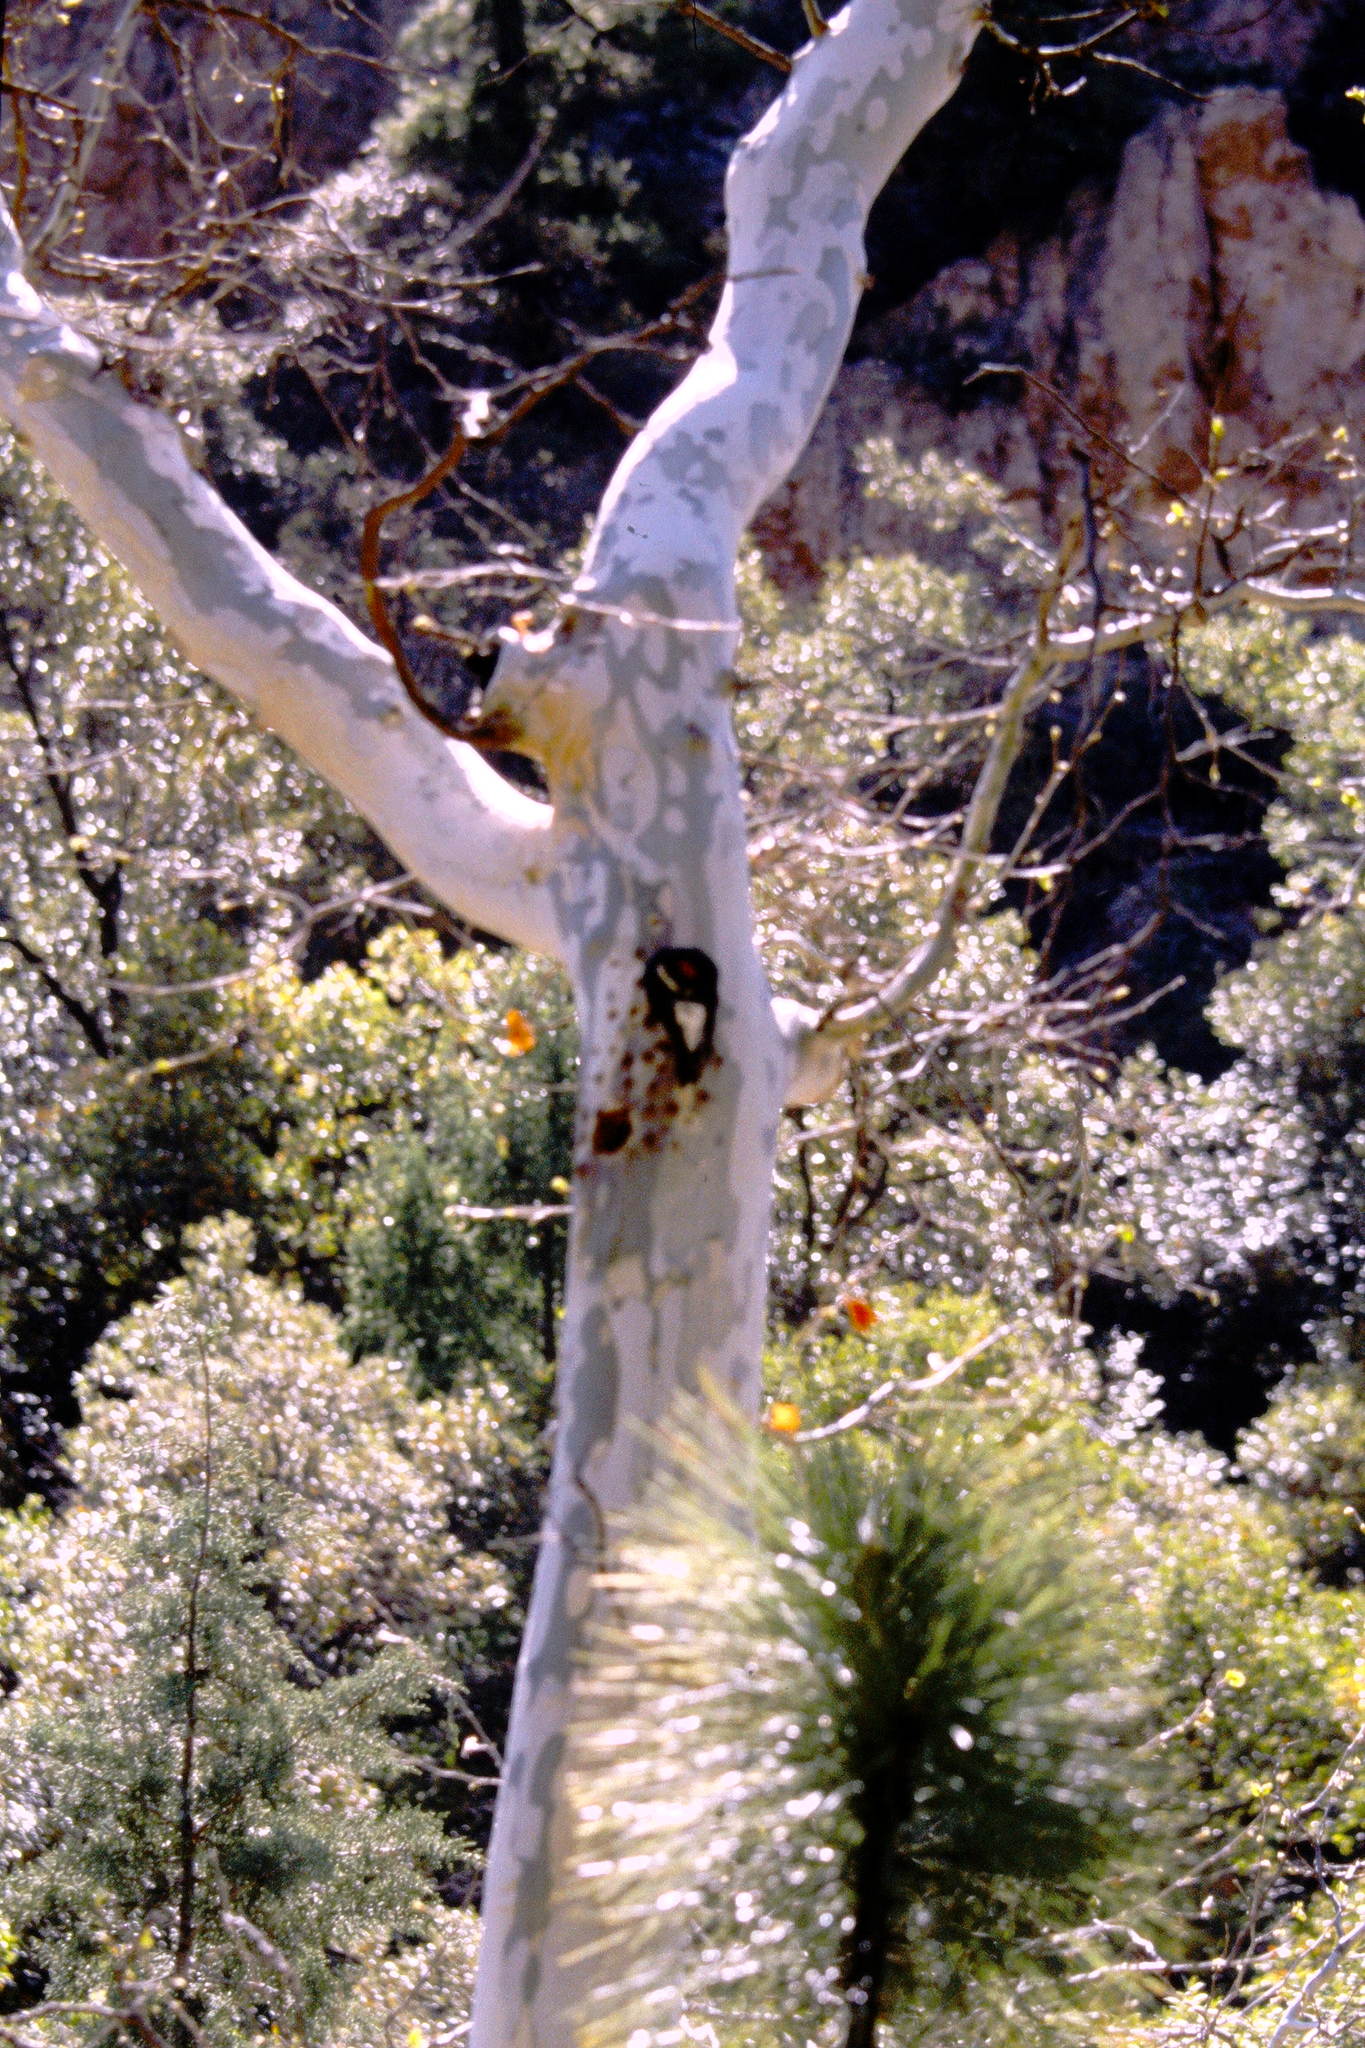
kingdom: Animalia
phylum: Chordata
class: Aves
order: Piciformes
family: Picidae
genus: Melanerpes
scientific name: Melanerpes formicivorus
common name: Acorn woodpecker
